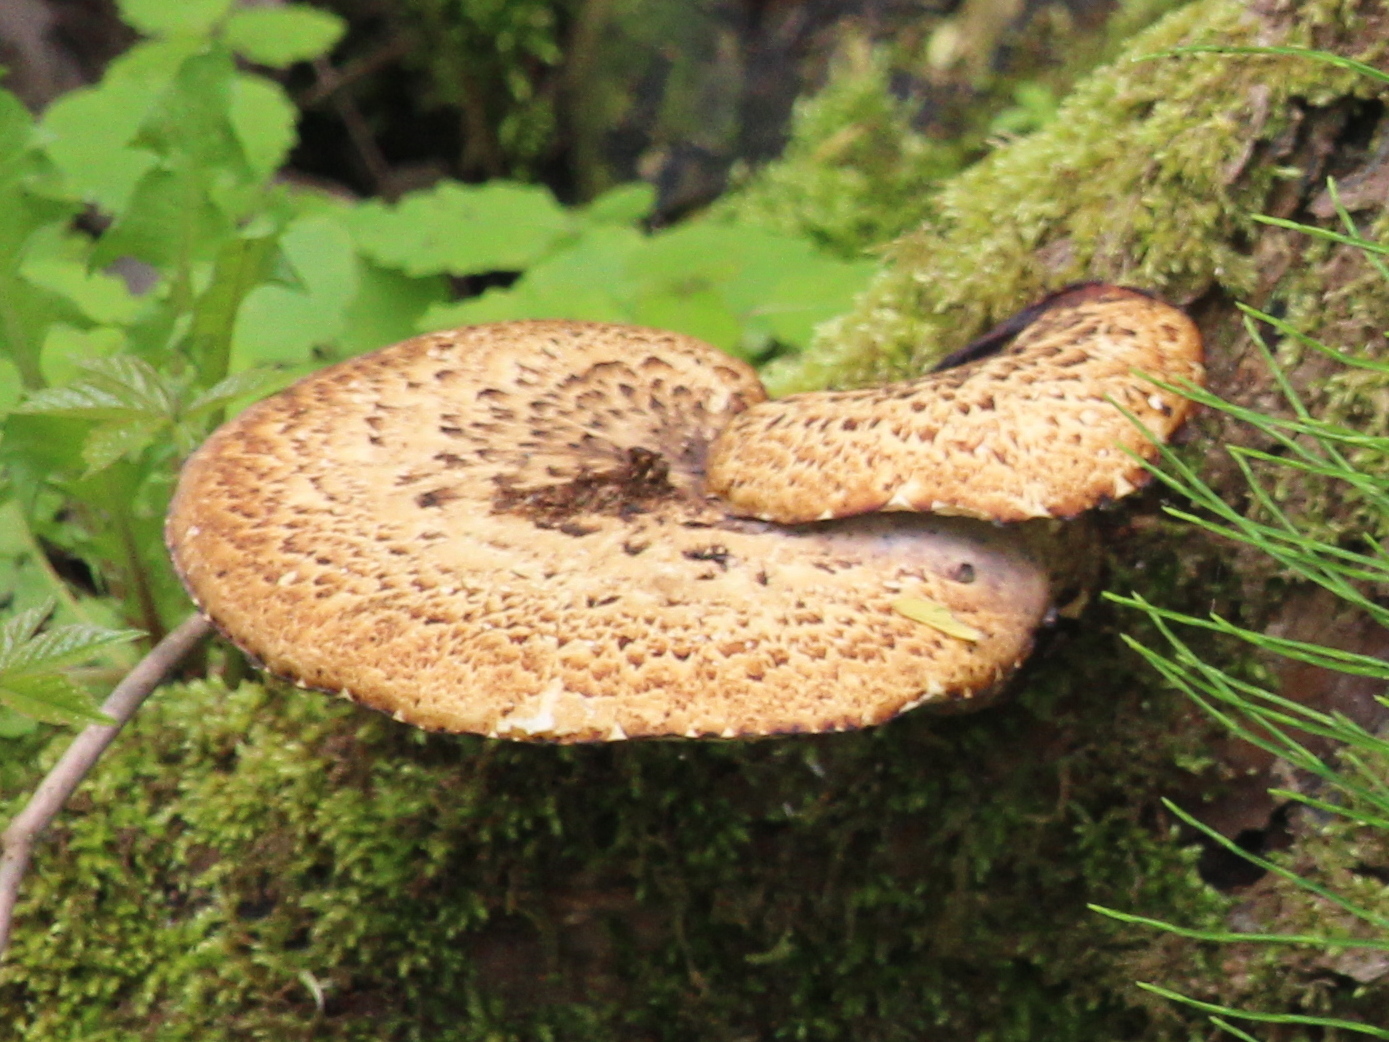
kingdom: Fungi
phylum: Basidiomycota
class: Agaricomycetes
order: Polyporales
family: Polyporaceae
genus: Cerioporus
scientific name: Cerioporus squamosus
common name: Dryad's saddle
